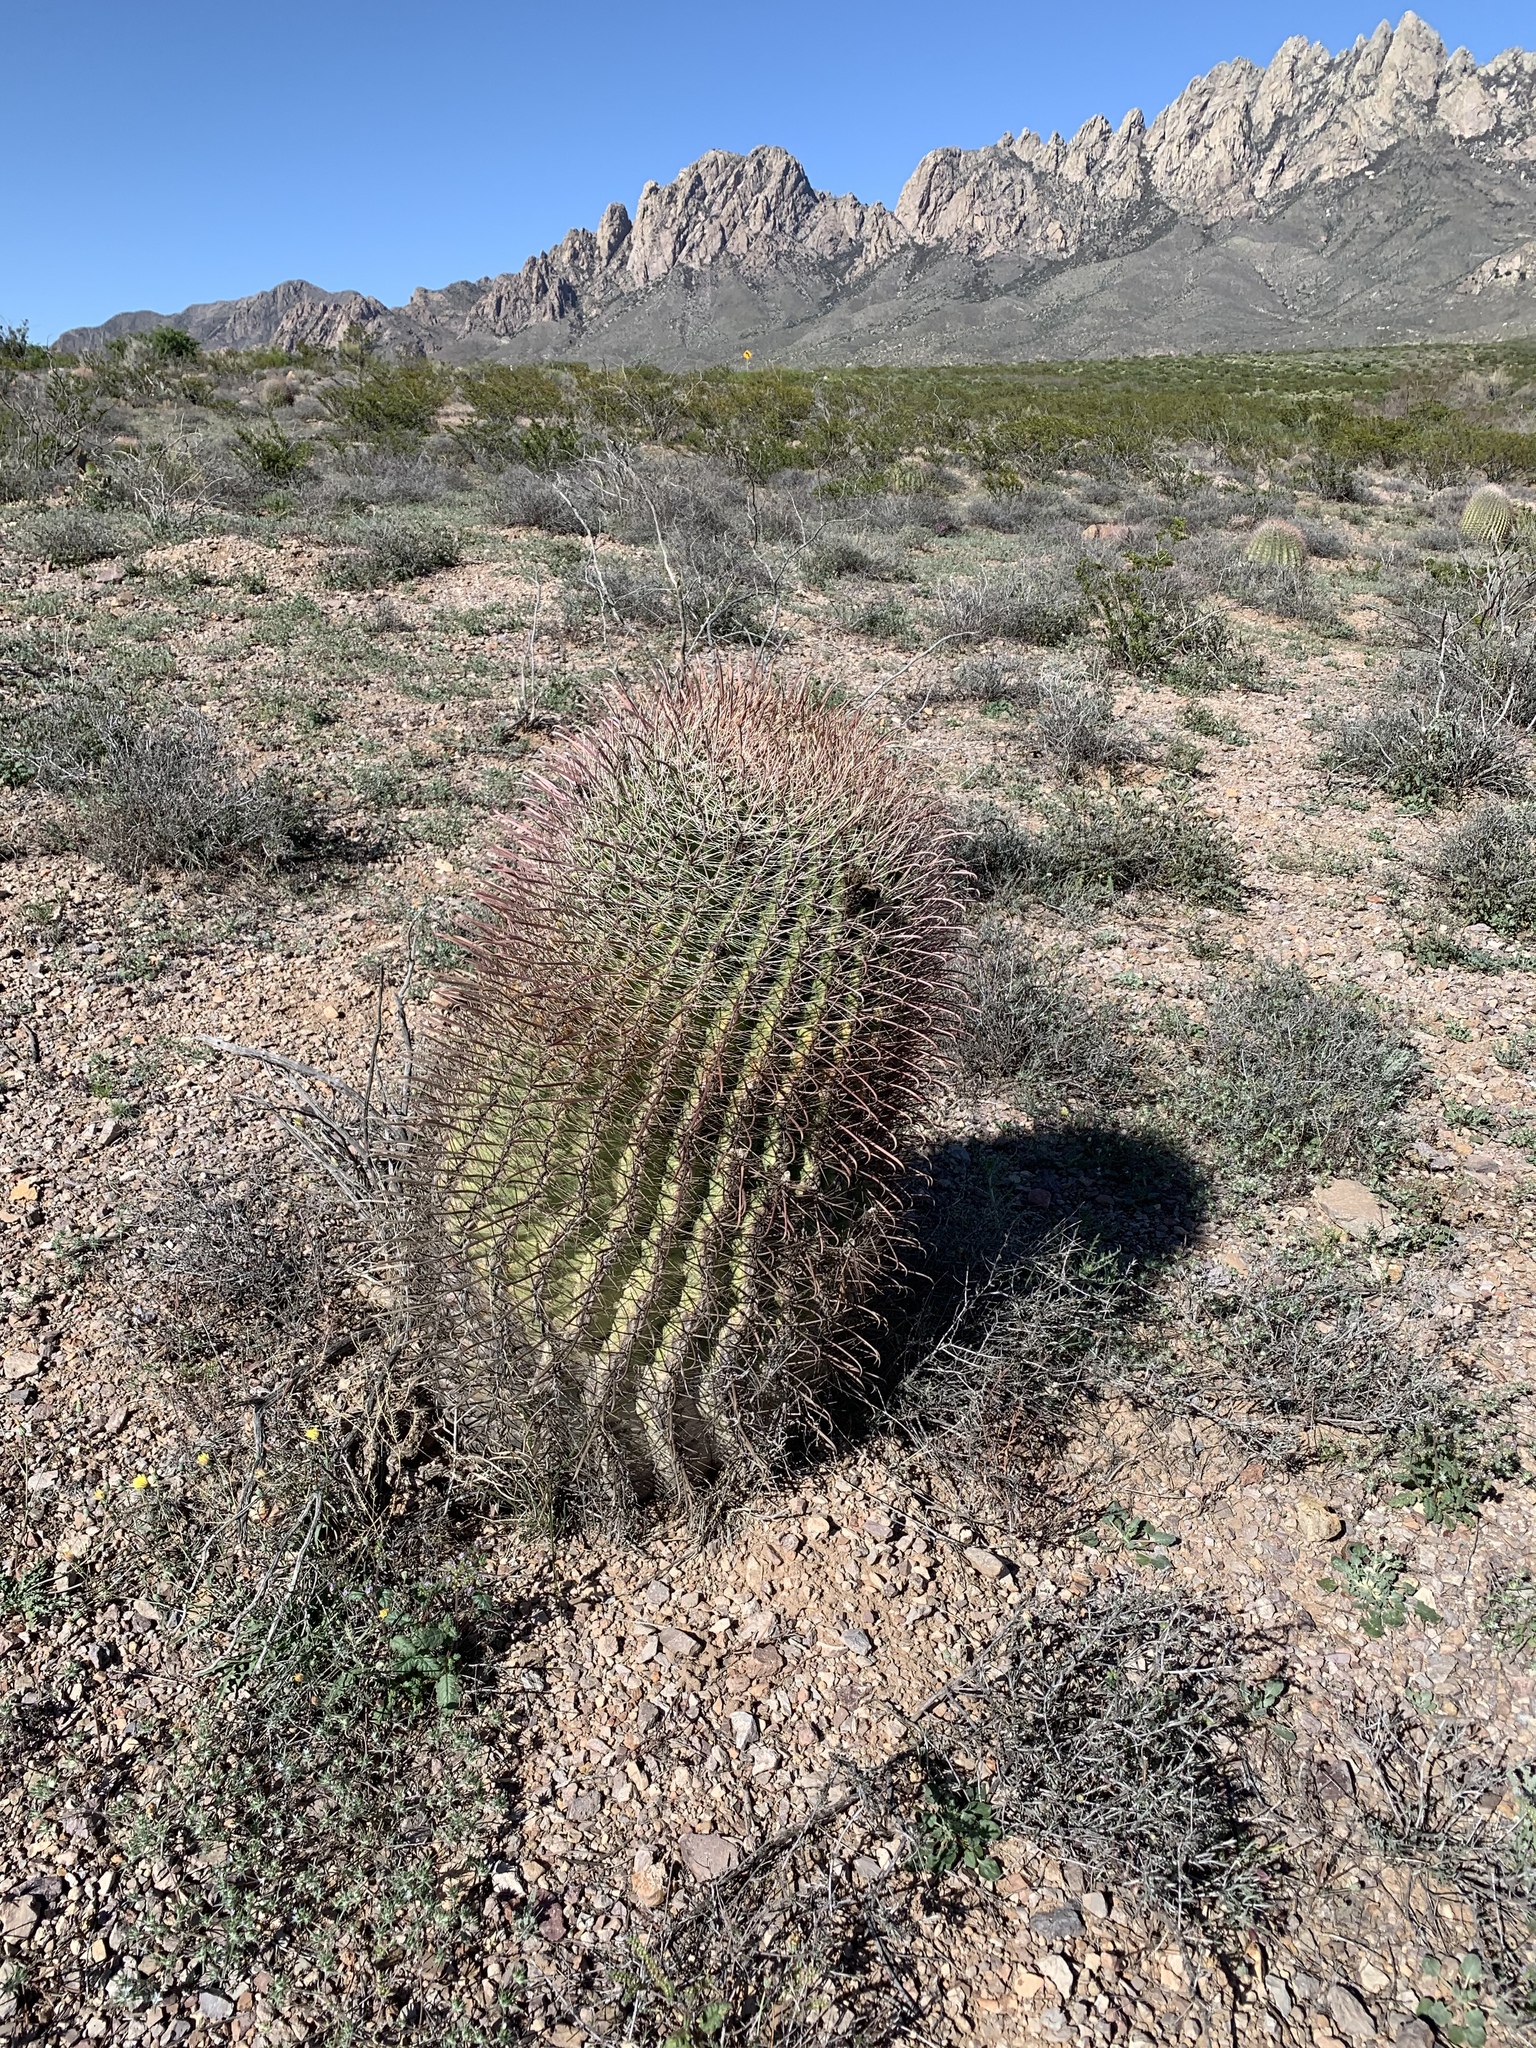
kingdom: Plantae
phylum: Tracheophyta
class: Magnoliopsida
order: Caryophyllales
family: Cactaceae
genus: Ferocactus
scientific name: Ferocactus wislizeni
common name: Candy barrel cactus
